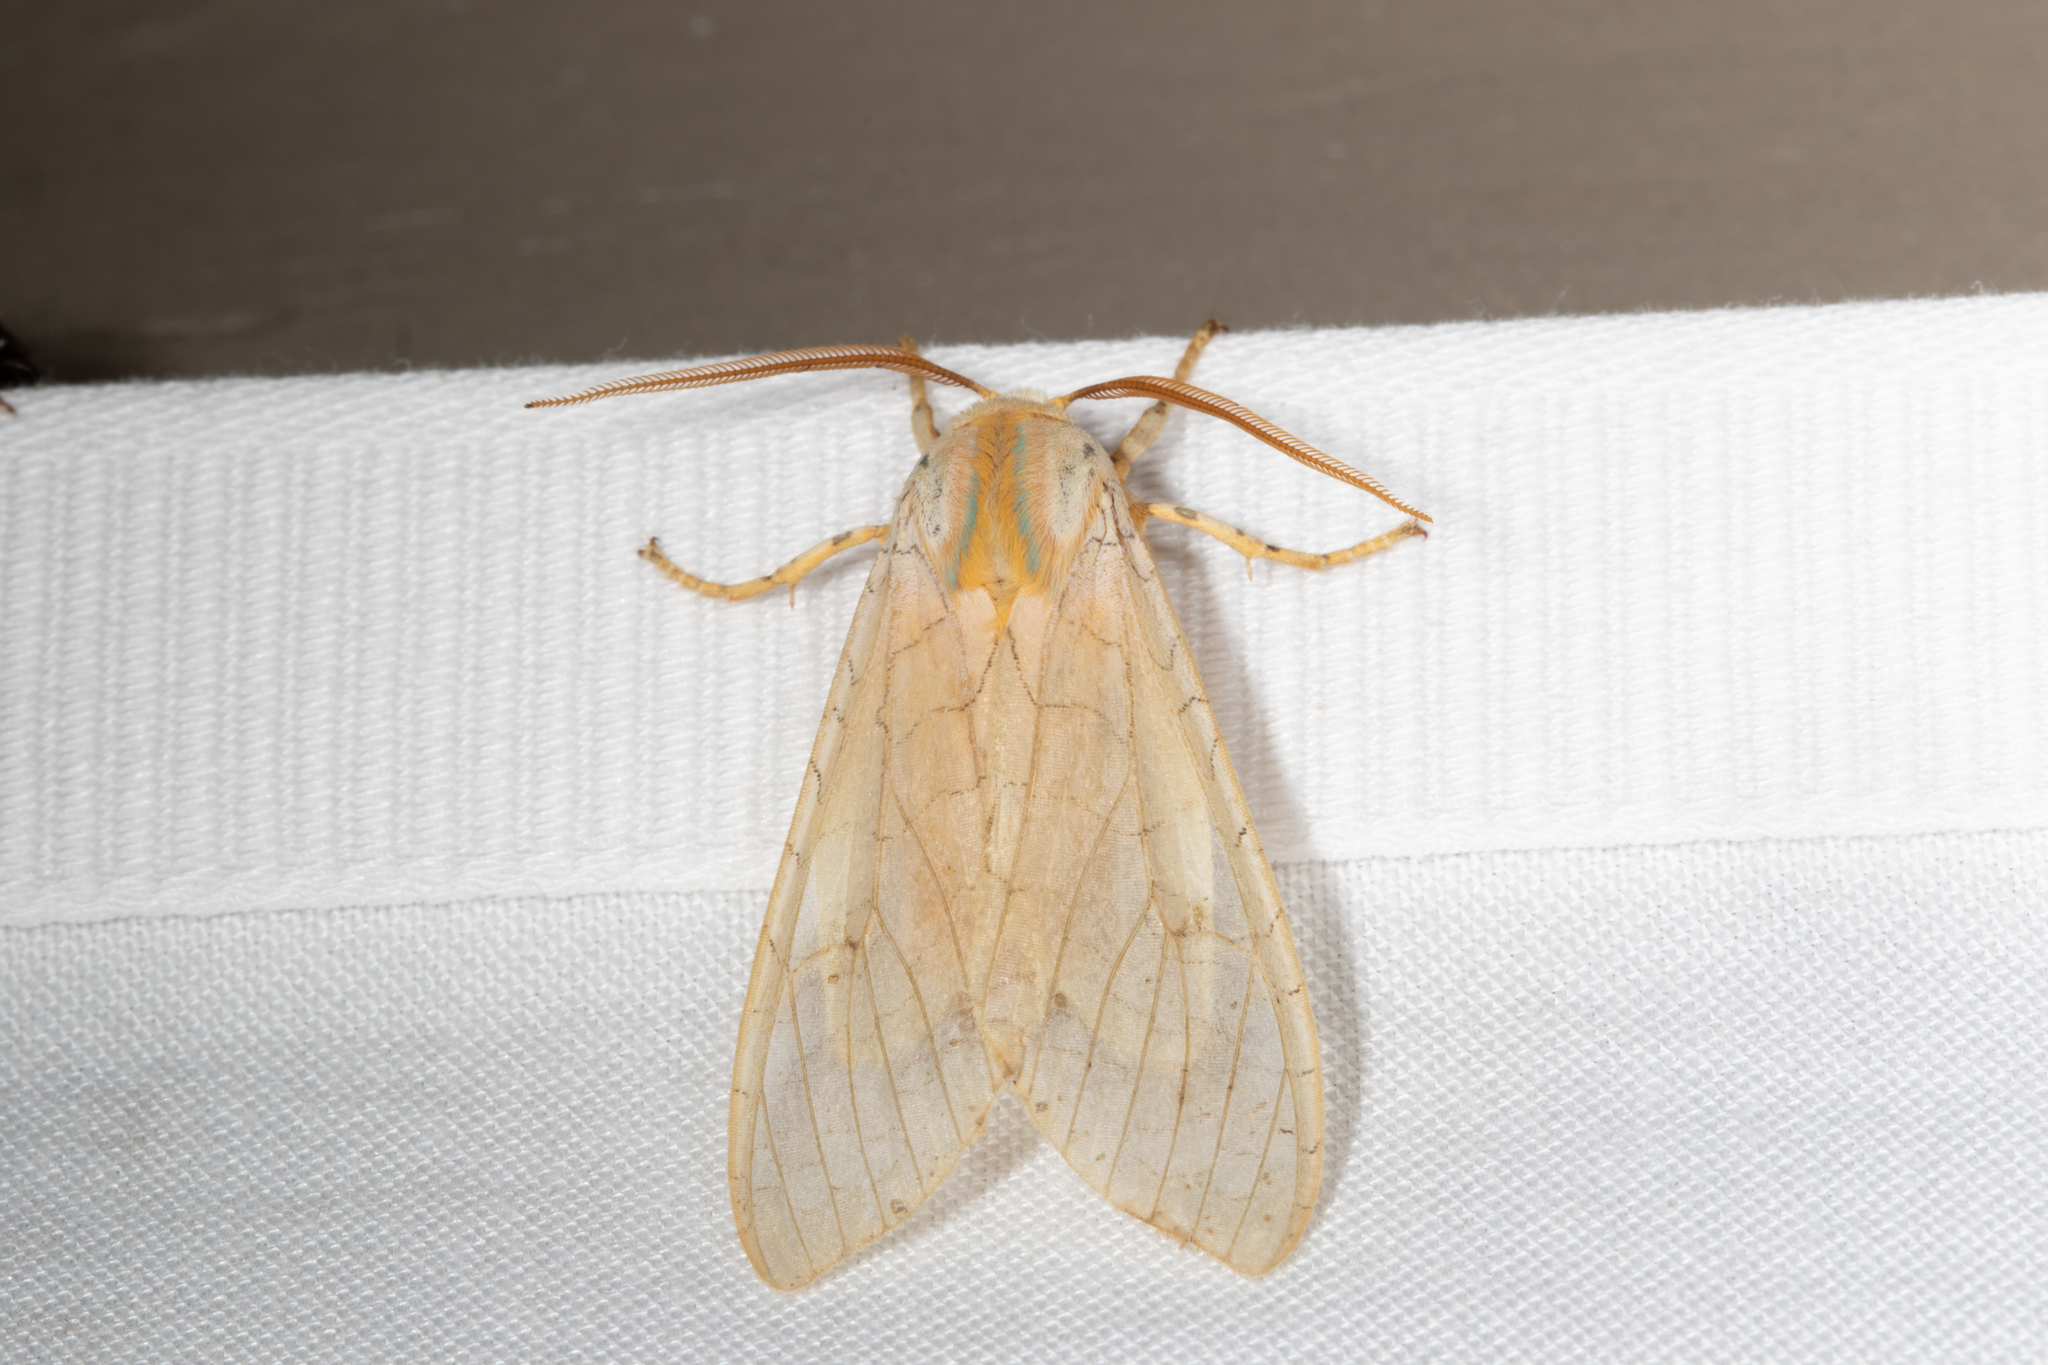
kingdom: Animalia
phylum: Arthropoda
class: Insecta
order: Lepidoptera
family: Erebidae
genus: Halysidota
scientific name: Halysidota
